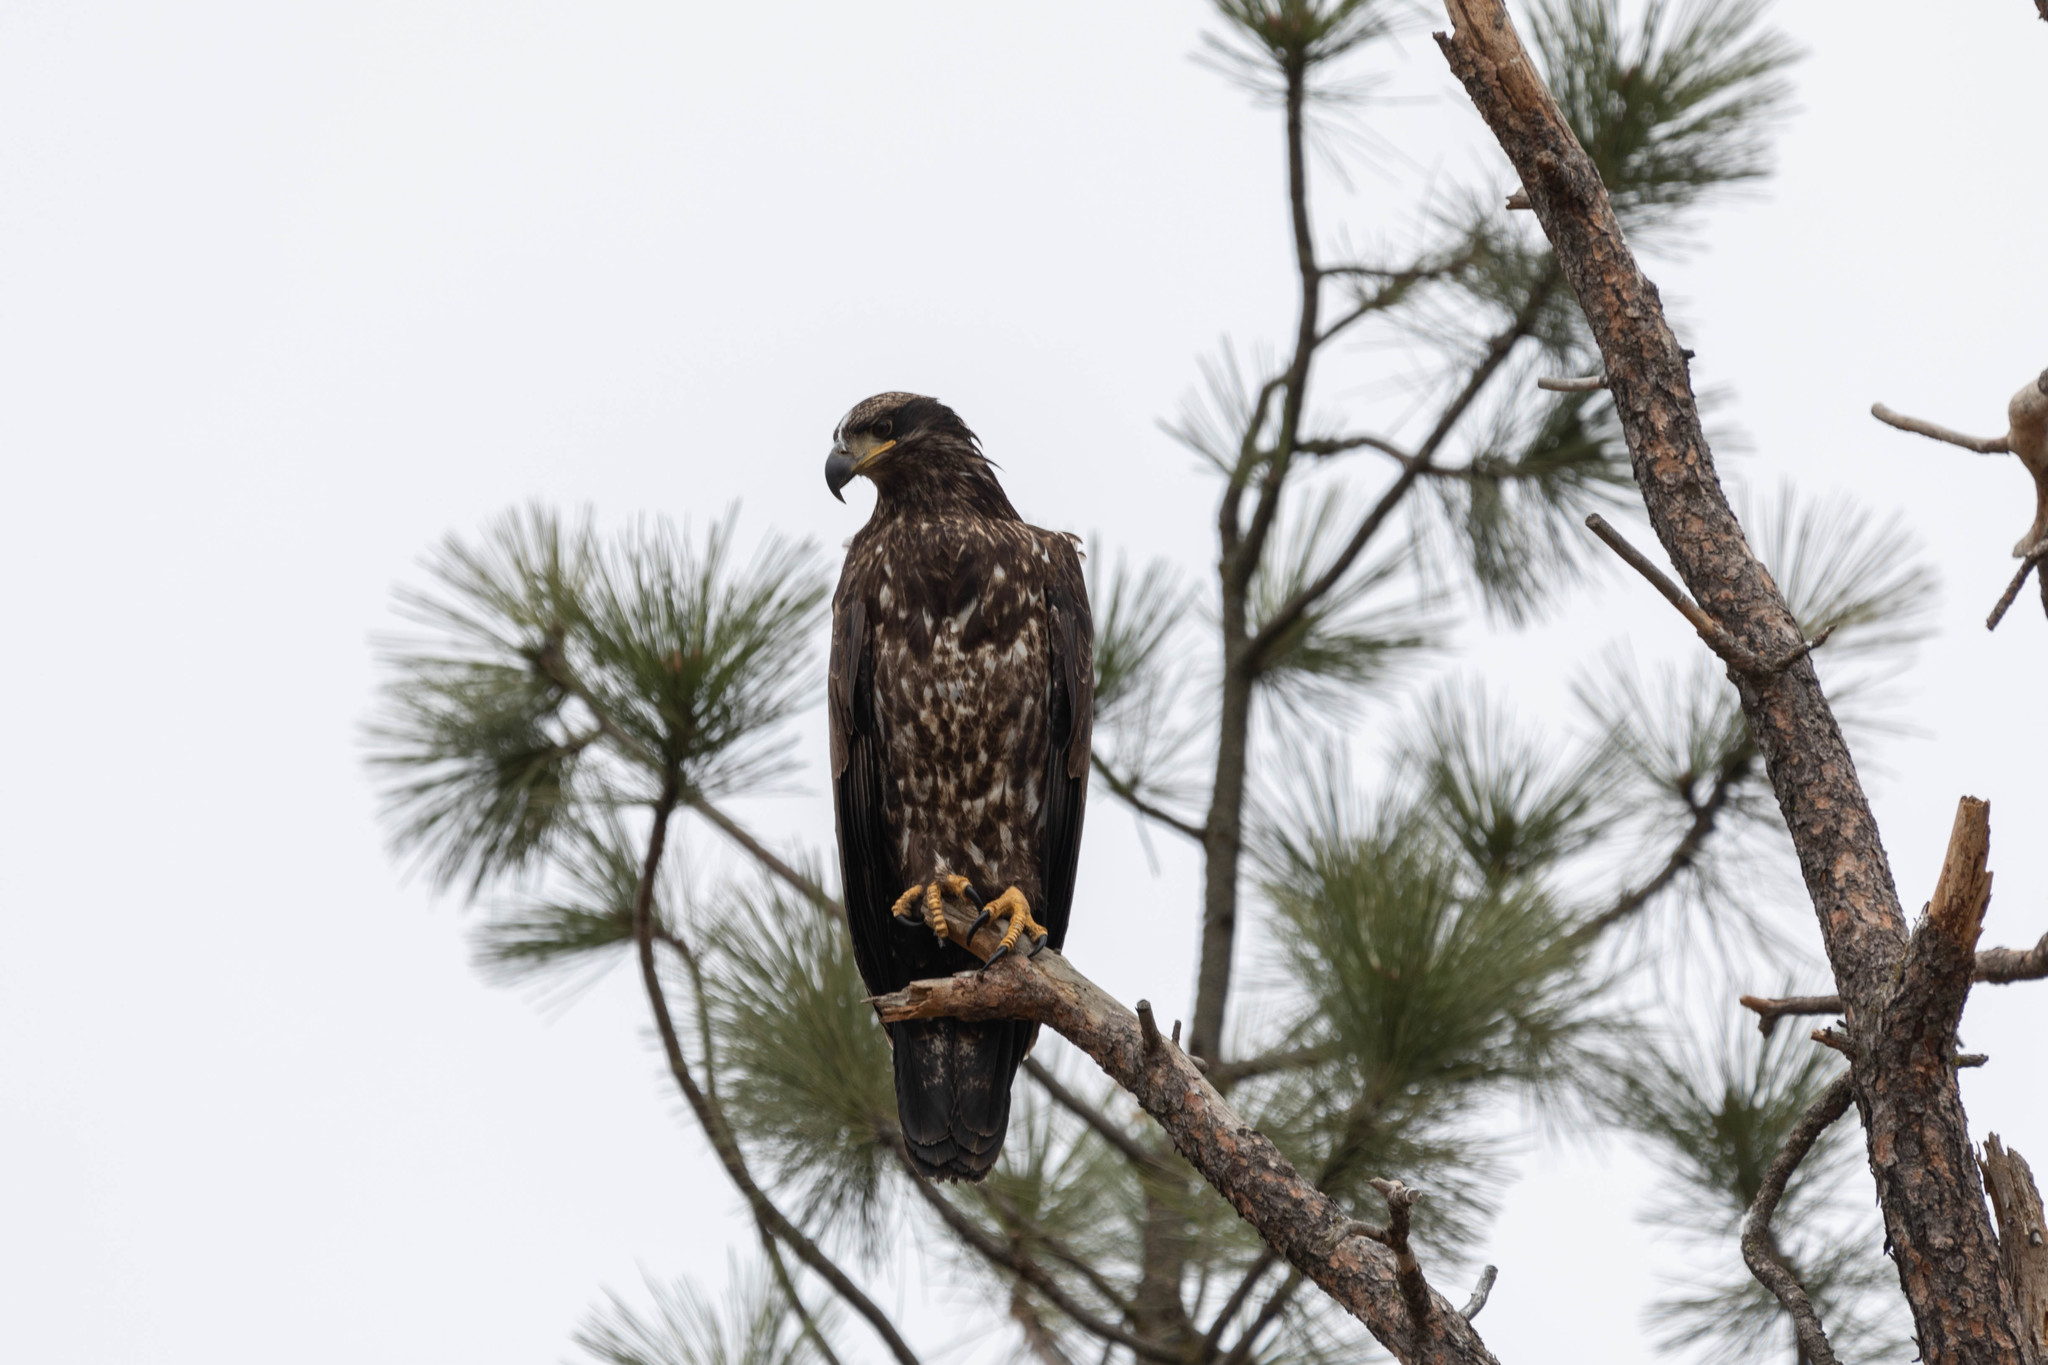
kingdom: Animalia
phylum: Chordata
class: Aves
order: Accipitriformes
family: Accipitridae
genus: Haliaeetus
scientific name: Haliaeetus leucocephalus
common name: Bald eagle
